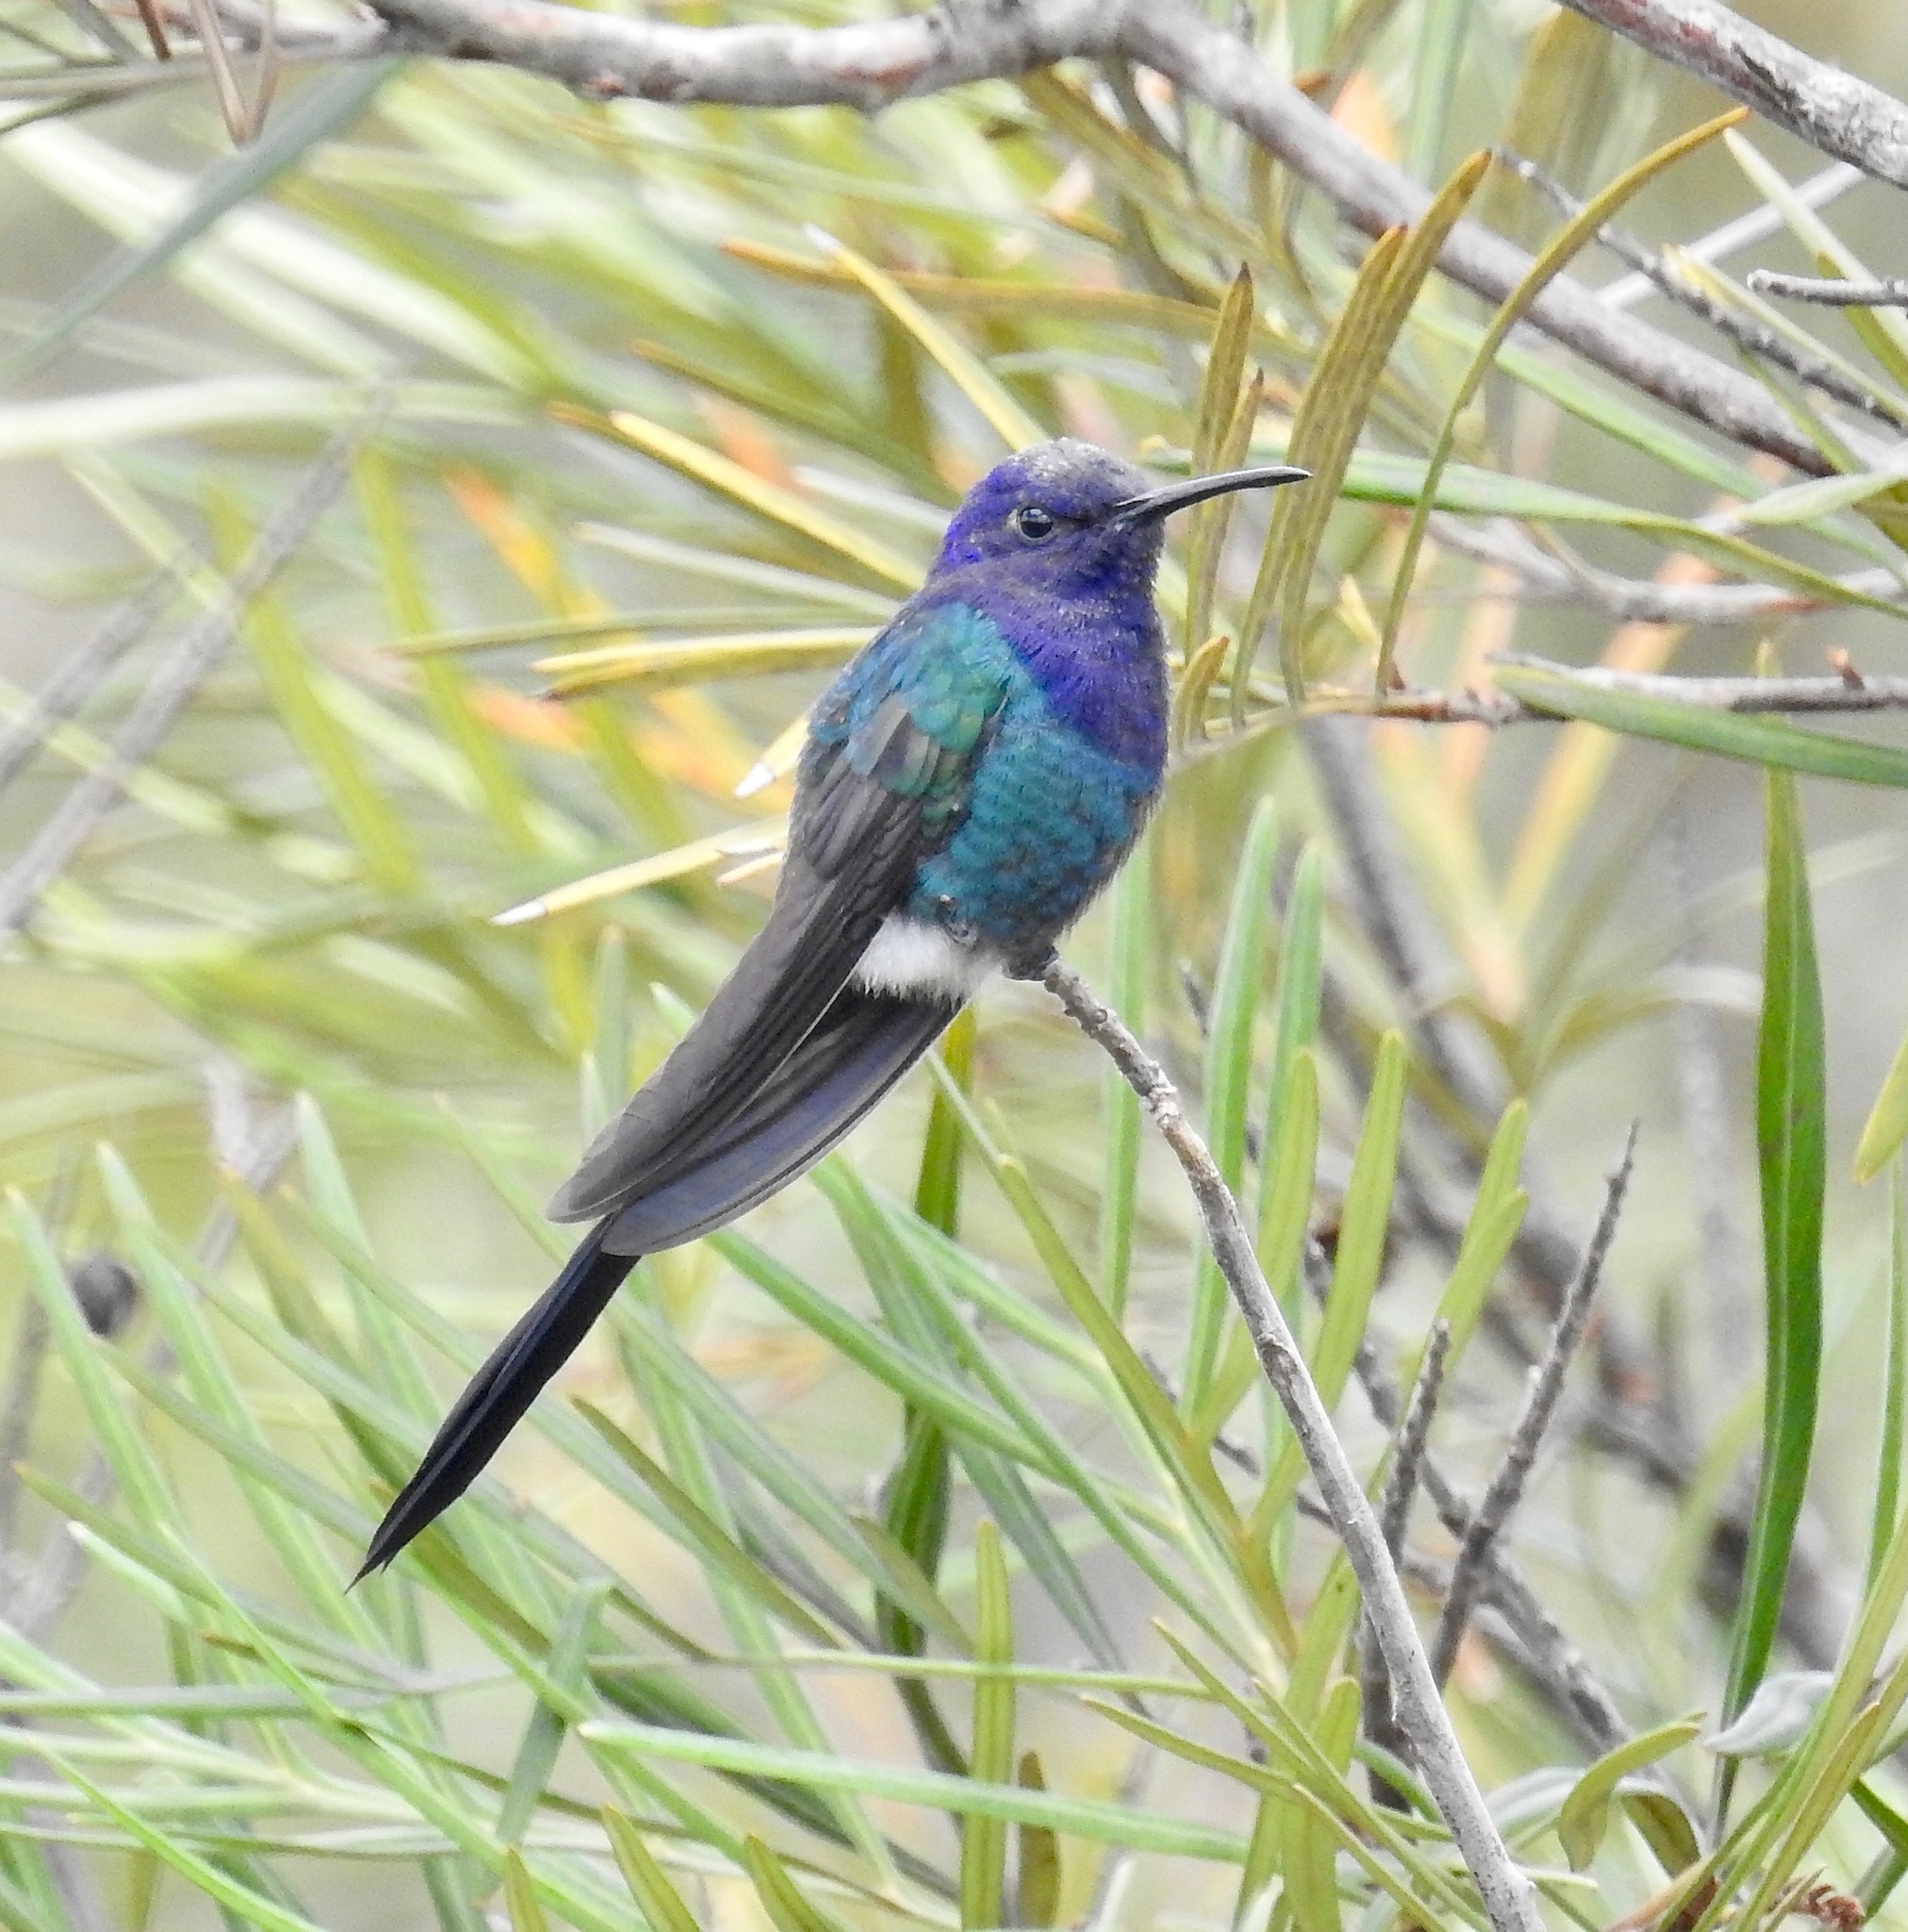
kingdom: Animalia
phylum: Chordata
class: Aves
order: Apodiformes
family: Trochilidae
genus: Eupetomena
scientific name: Eupetomena macroura
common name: Swallow-tailed hummingbird
